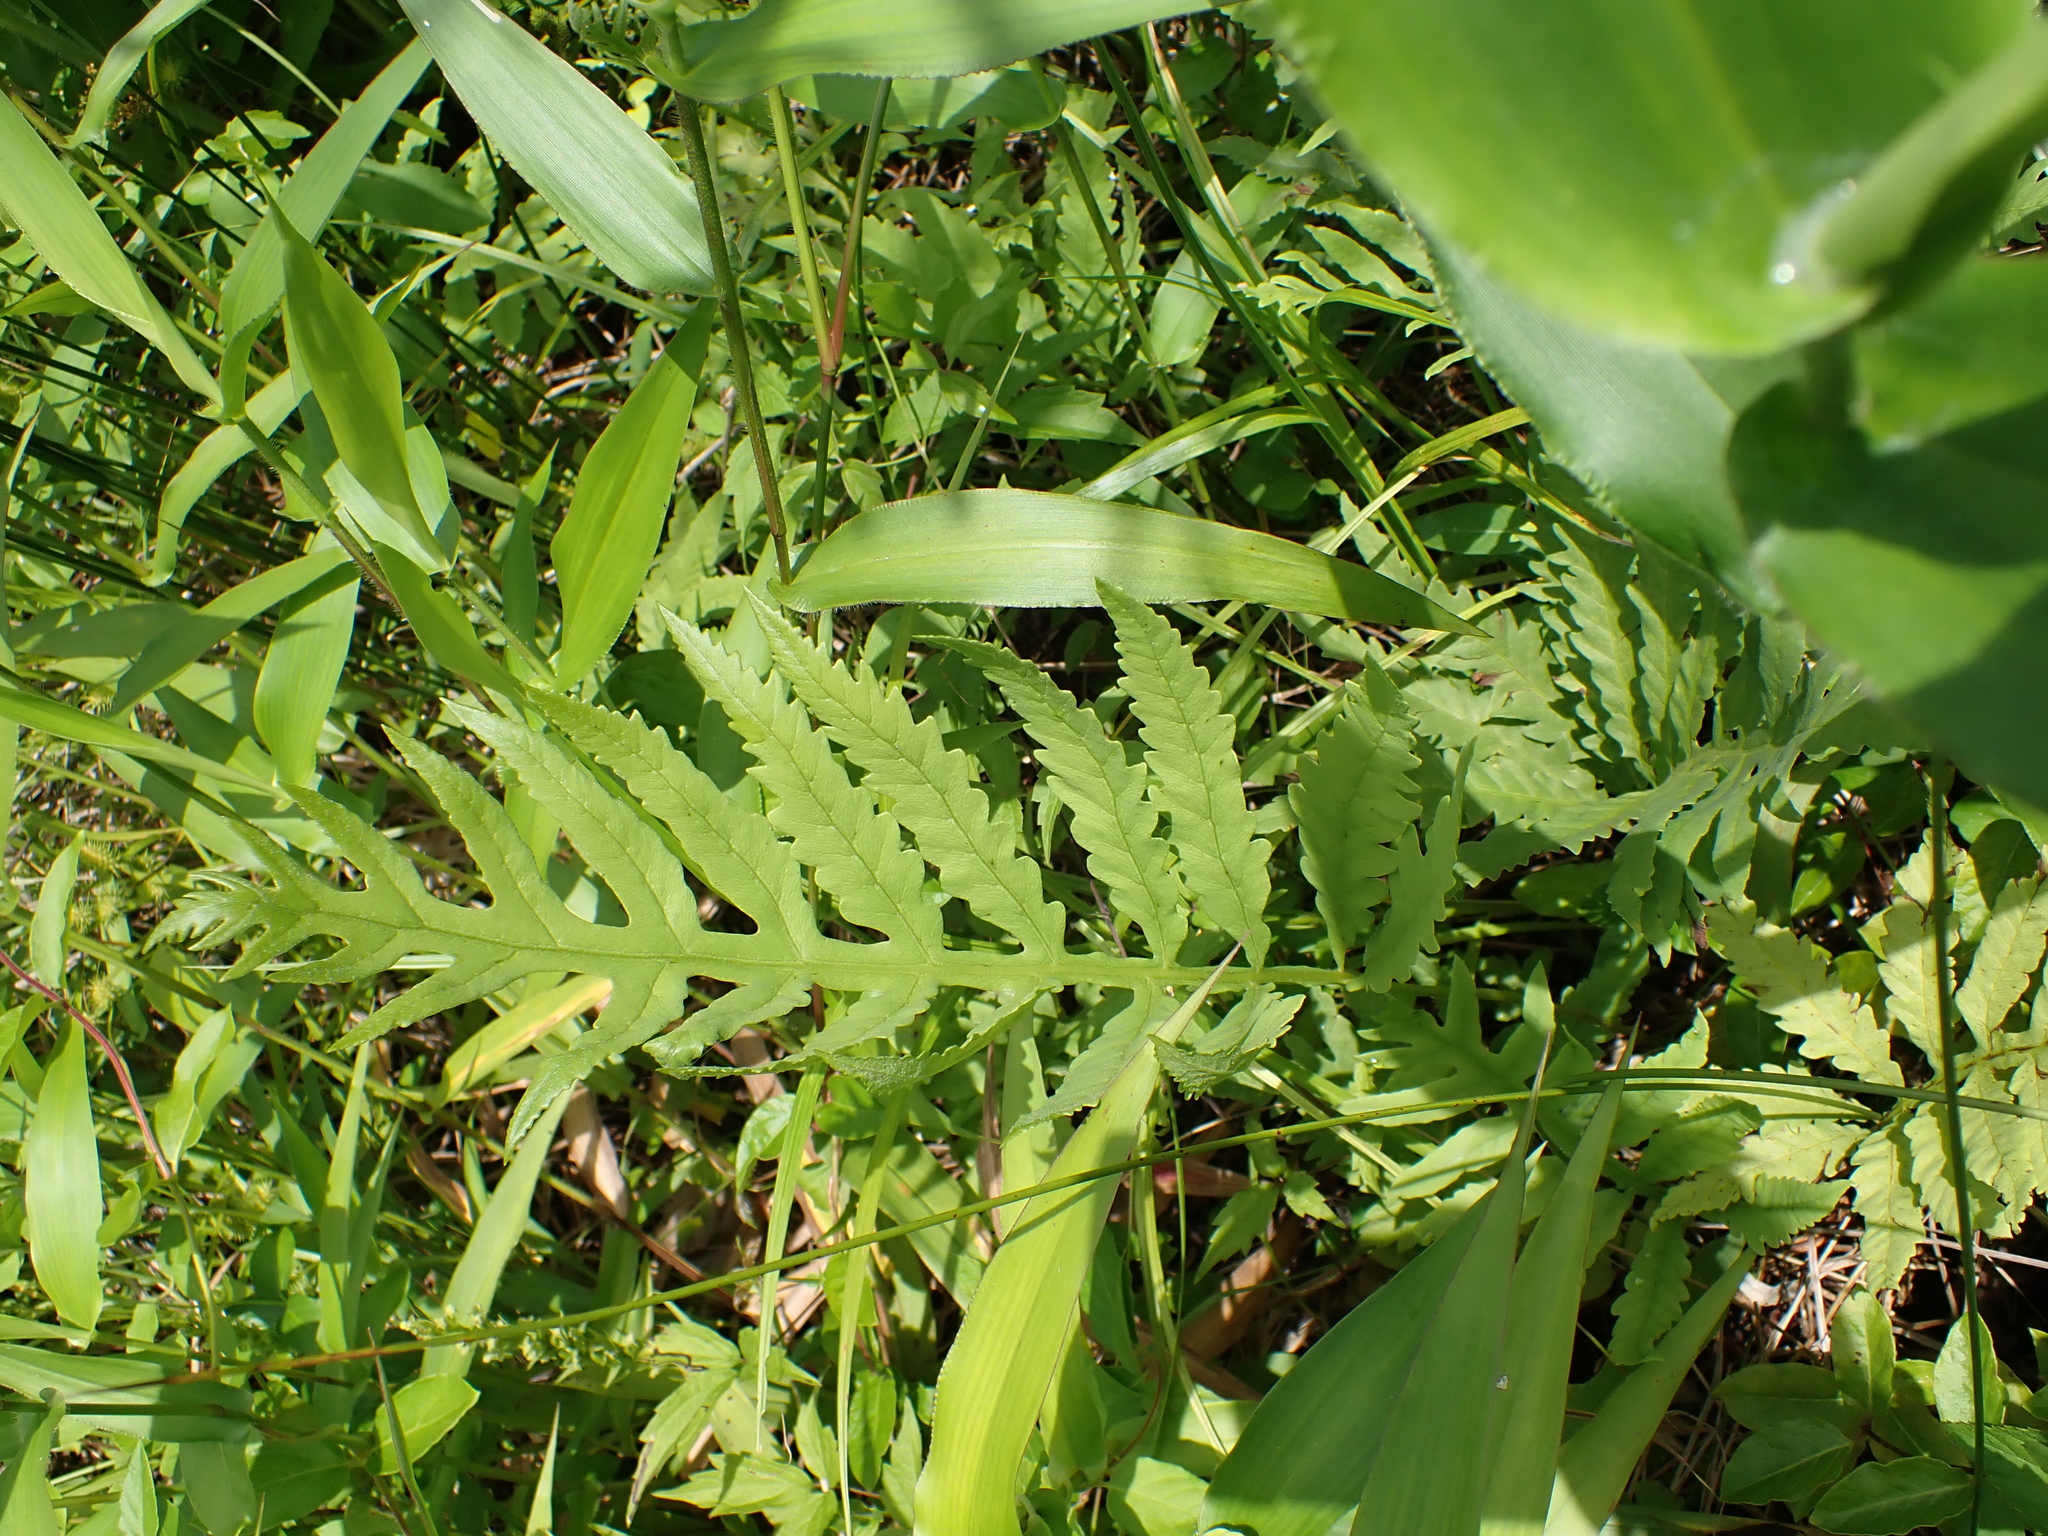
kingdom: Plantae
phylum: Tracheophyta
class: Polypodiopsida
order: Polypodiales
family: Onocleaceae
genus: Onoclea
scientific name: Onoclea sensibilis
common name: Sensitive fern
